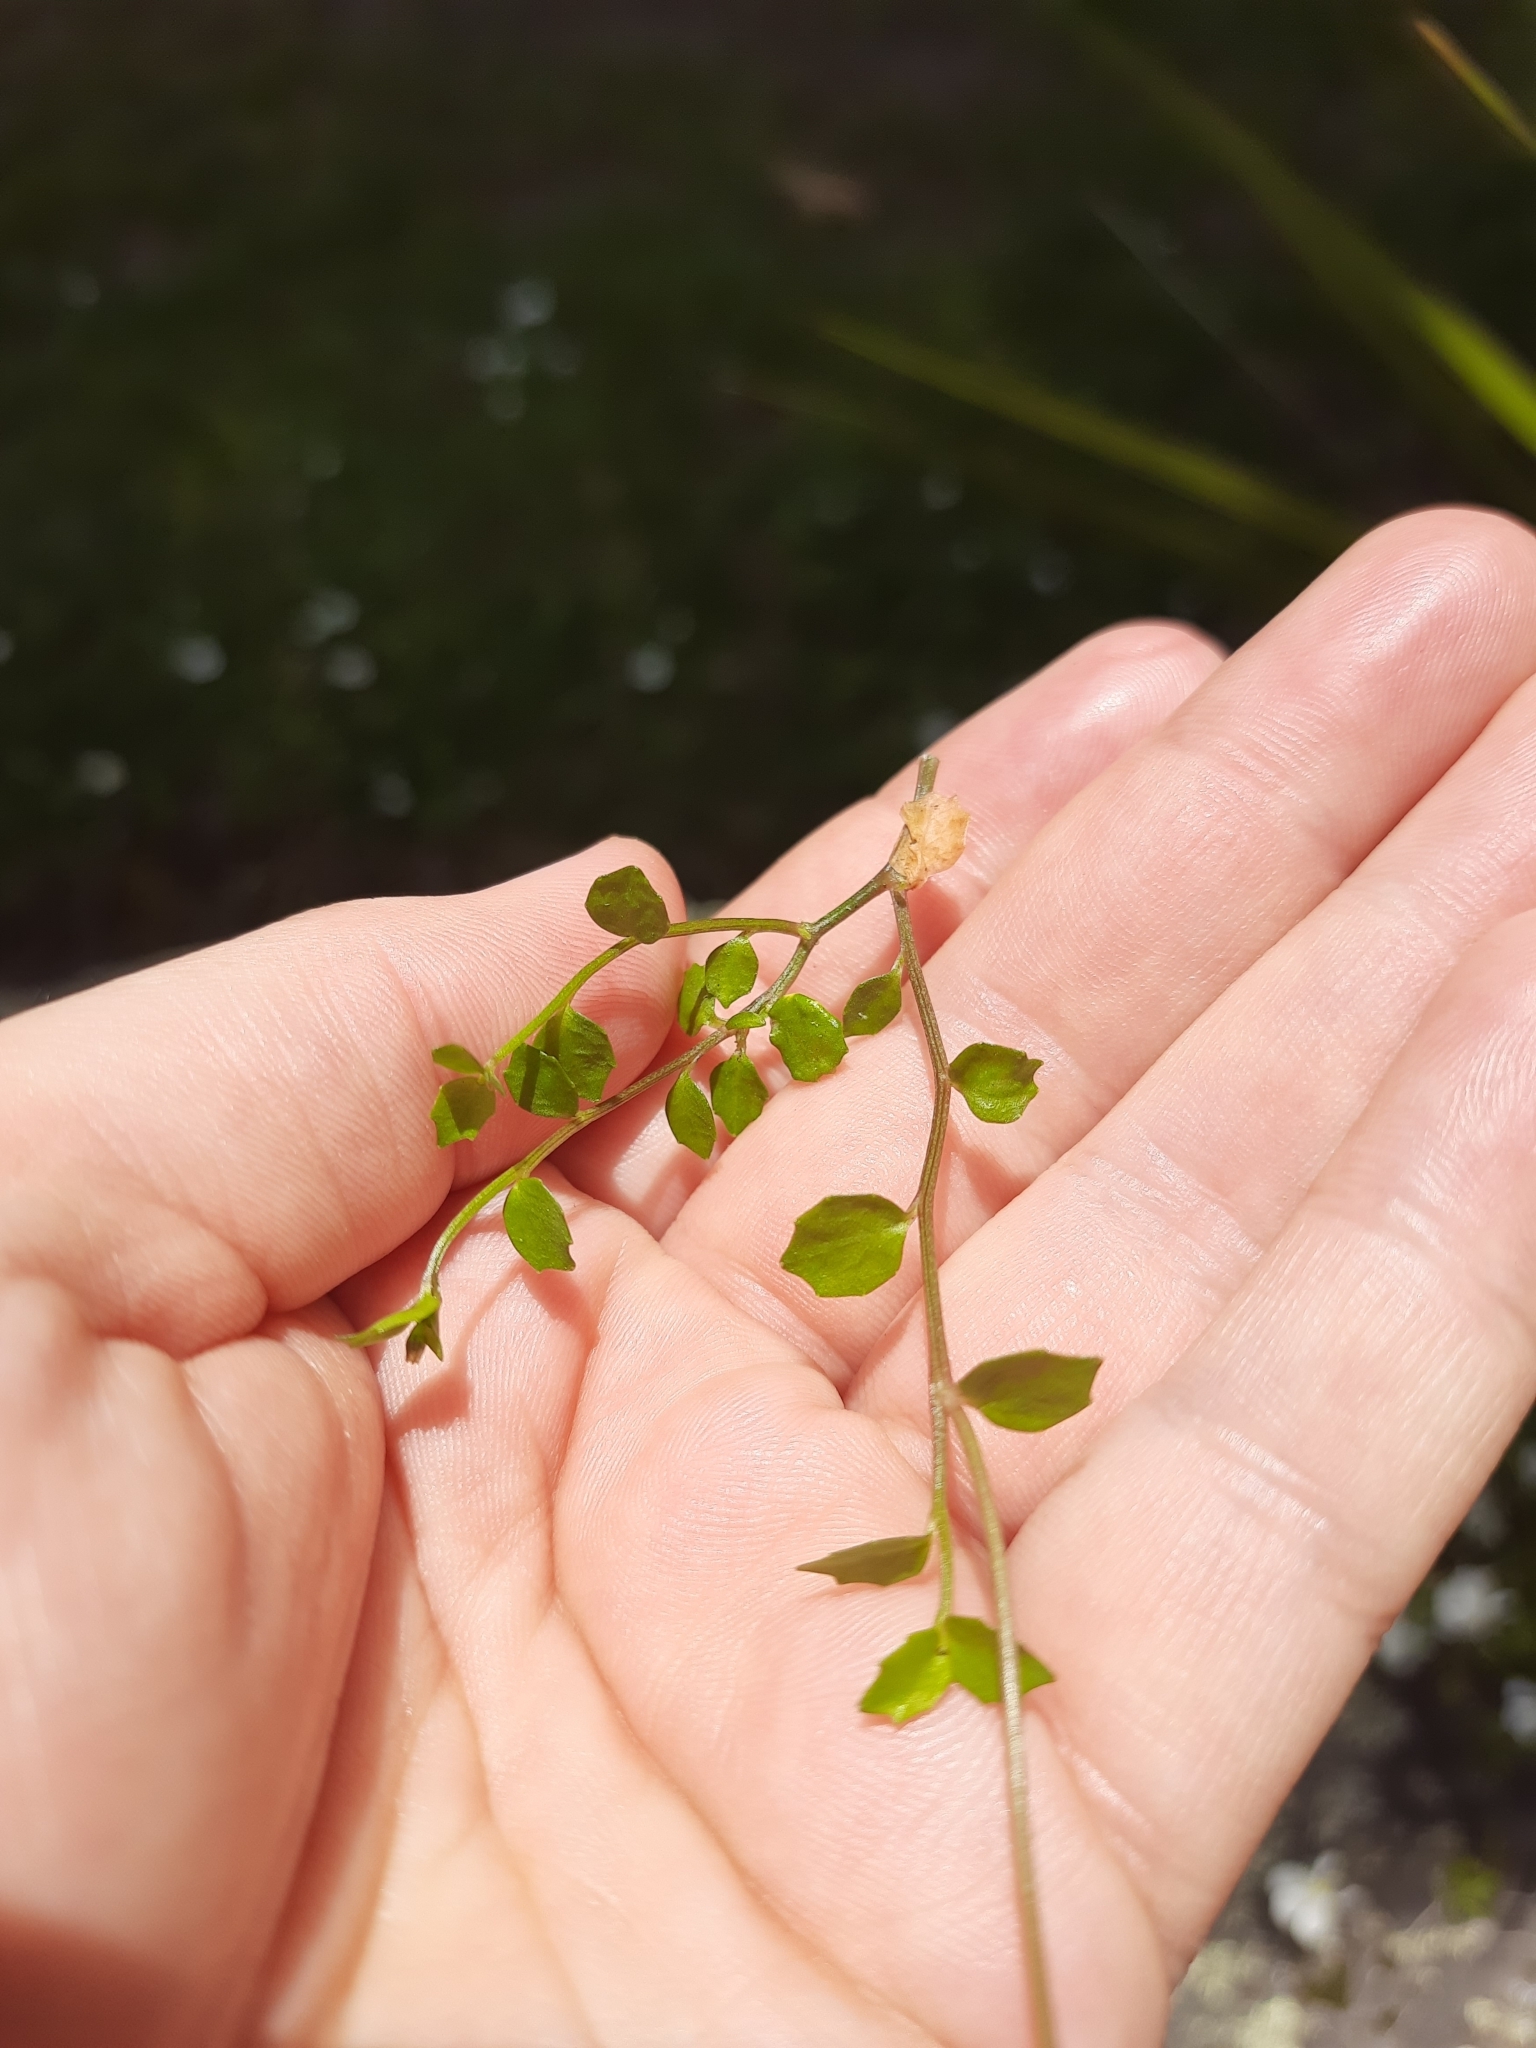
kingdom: Plantae
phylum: Tracheophyta
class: Magnoliopsida
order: Asterales
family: Campanulaceae
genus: Lobelia
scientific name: Lobelia angulata
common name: Lawn lobelia
